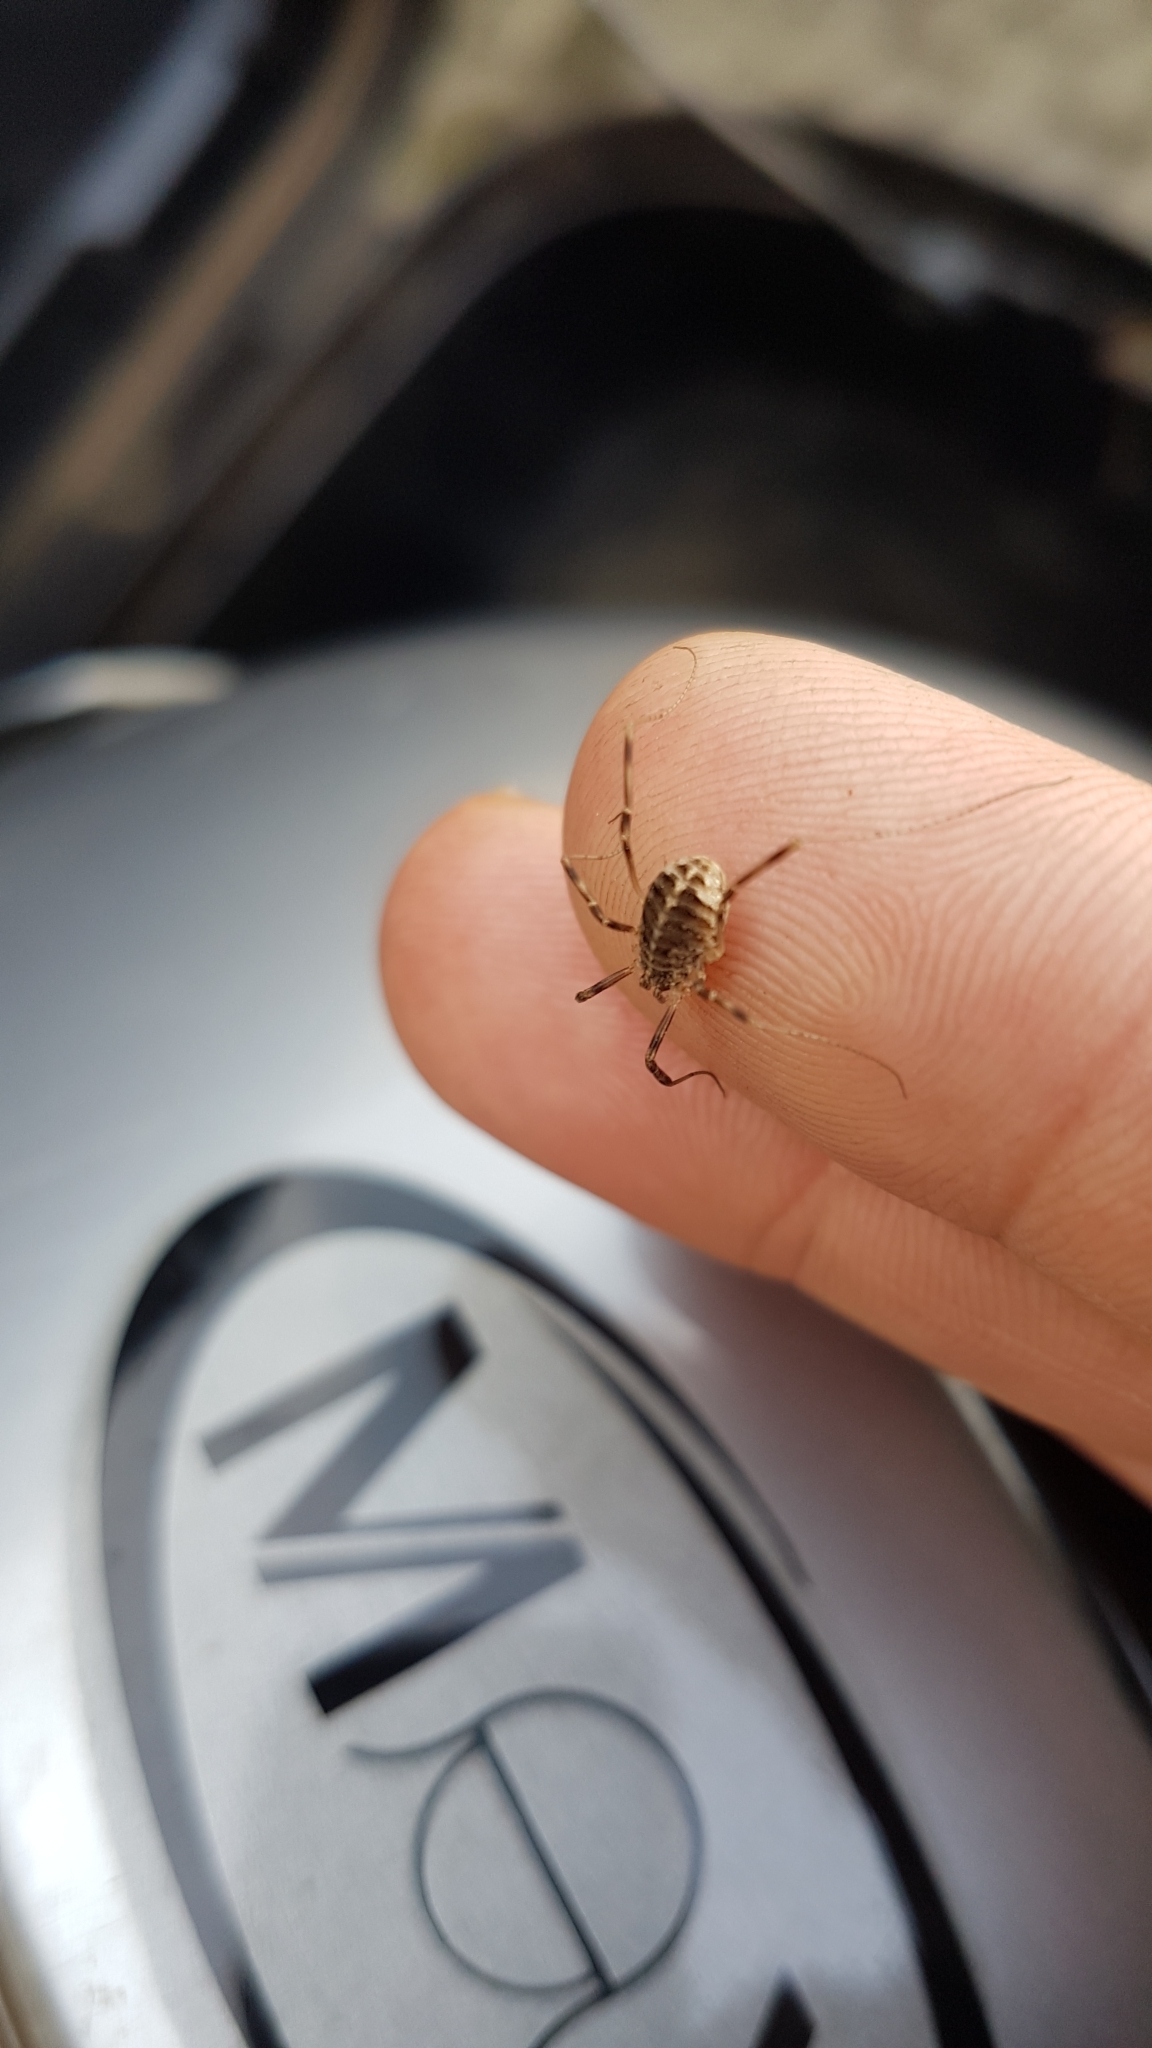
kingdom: Animalia
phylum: Arthropoda
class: Arachnida
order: Opiliones
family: Phalangiidae
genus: Opilio
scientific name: Opilio saxatilis
